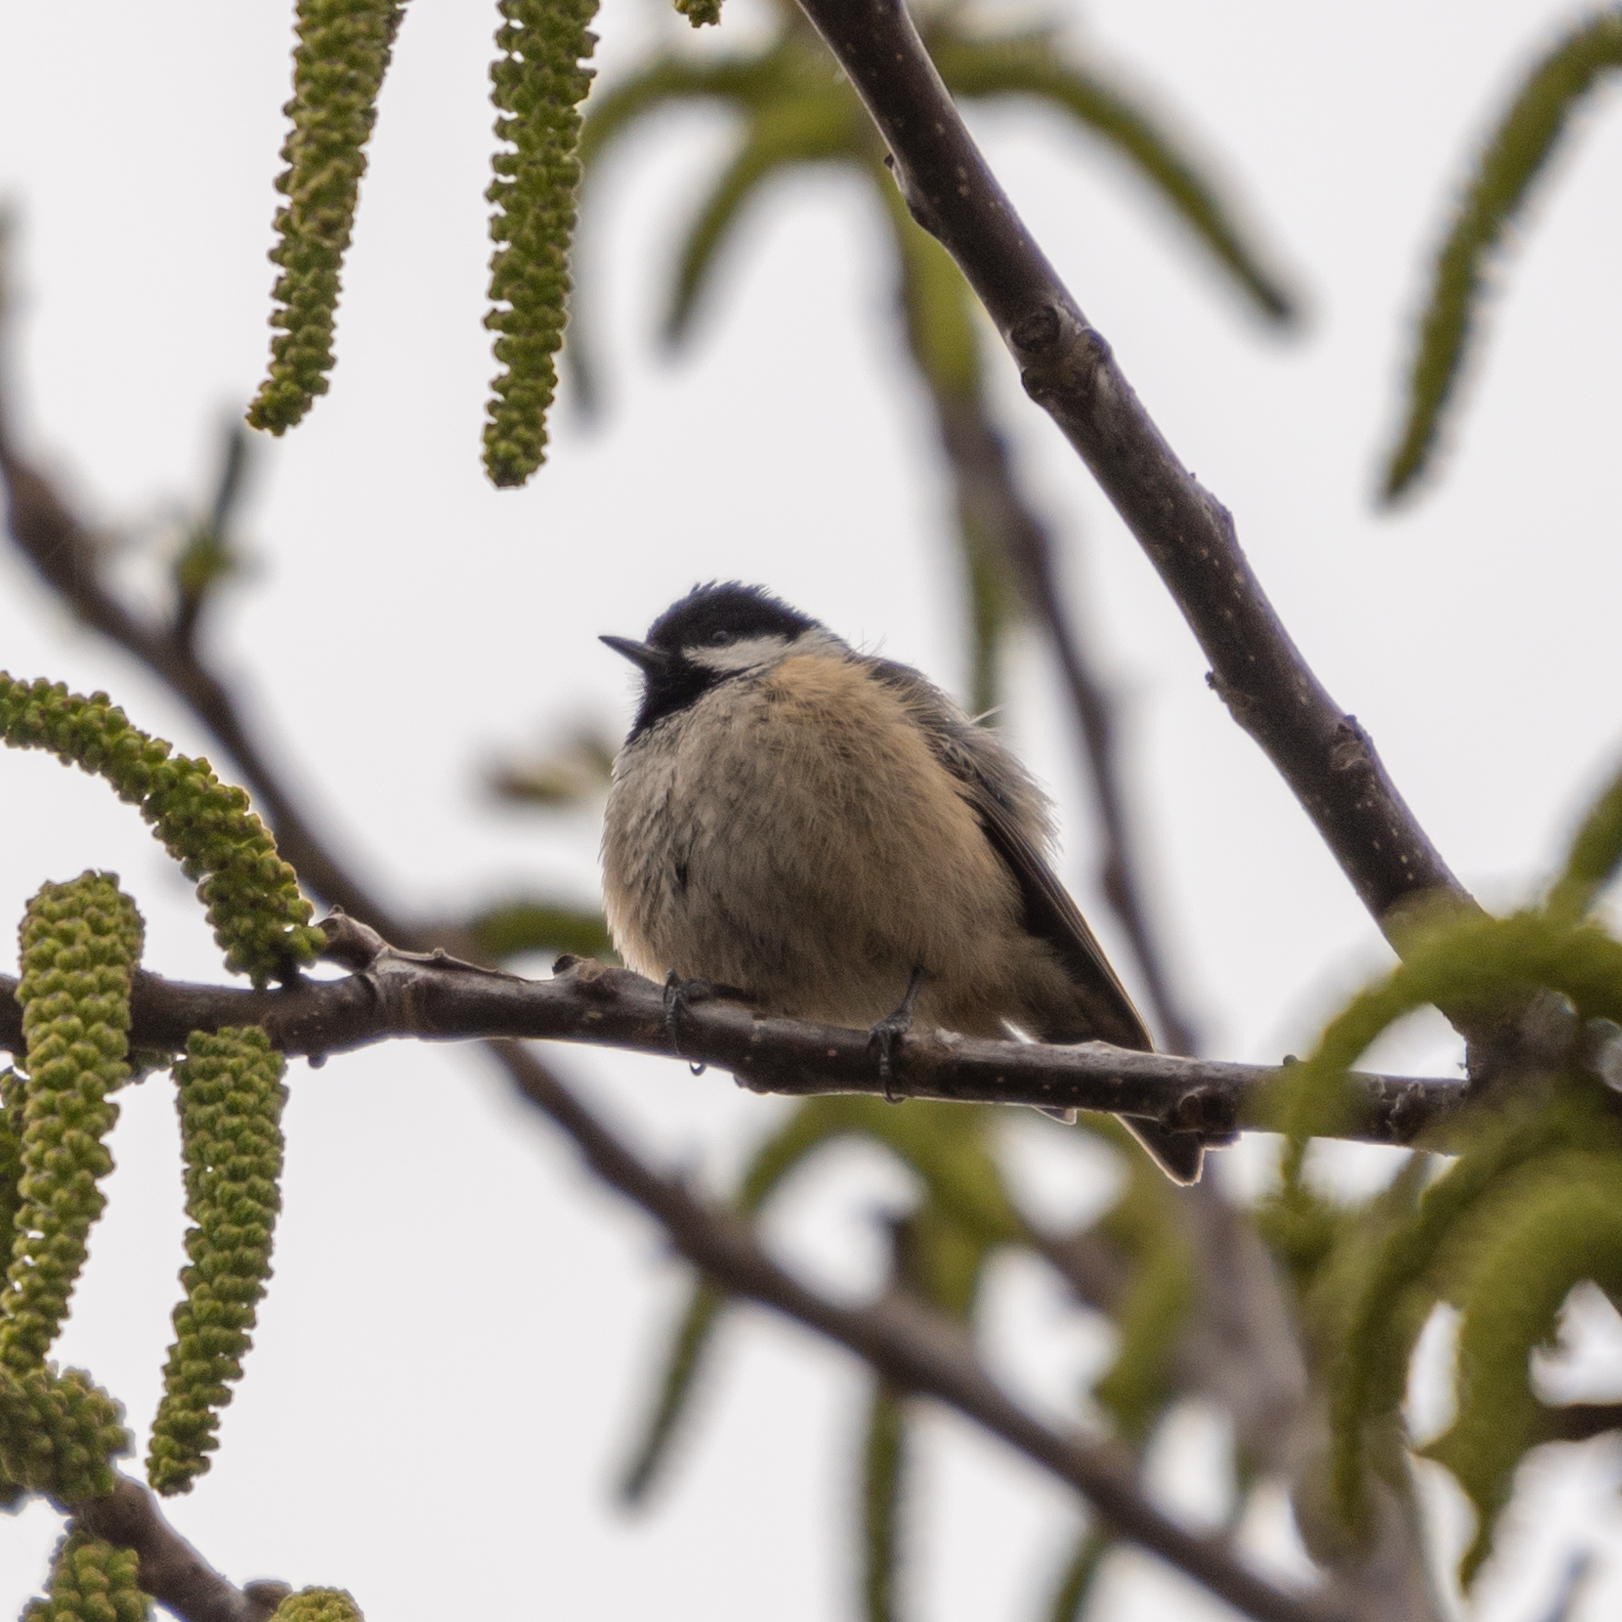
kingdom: Animalia
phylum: Chordata
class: Aves
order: Passeriformes
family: Paridae
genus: Periparus
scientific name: Periparus ater
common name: Coal tit
